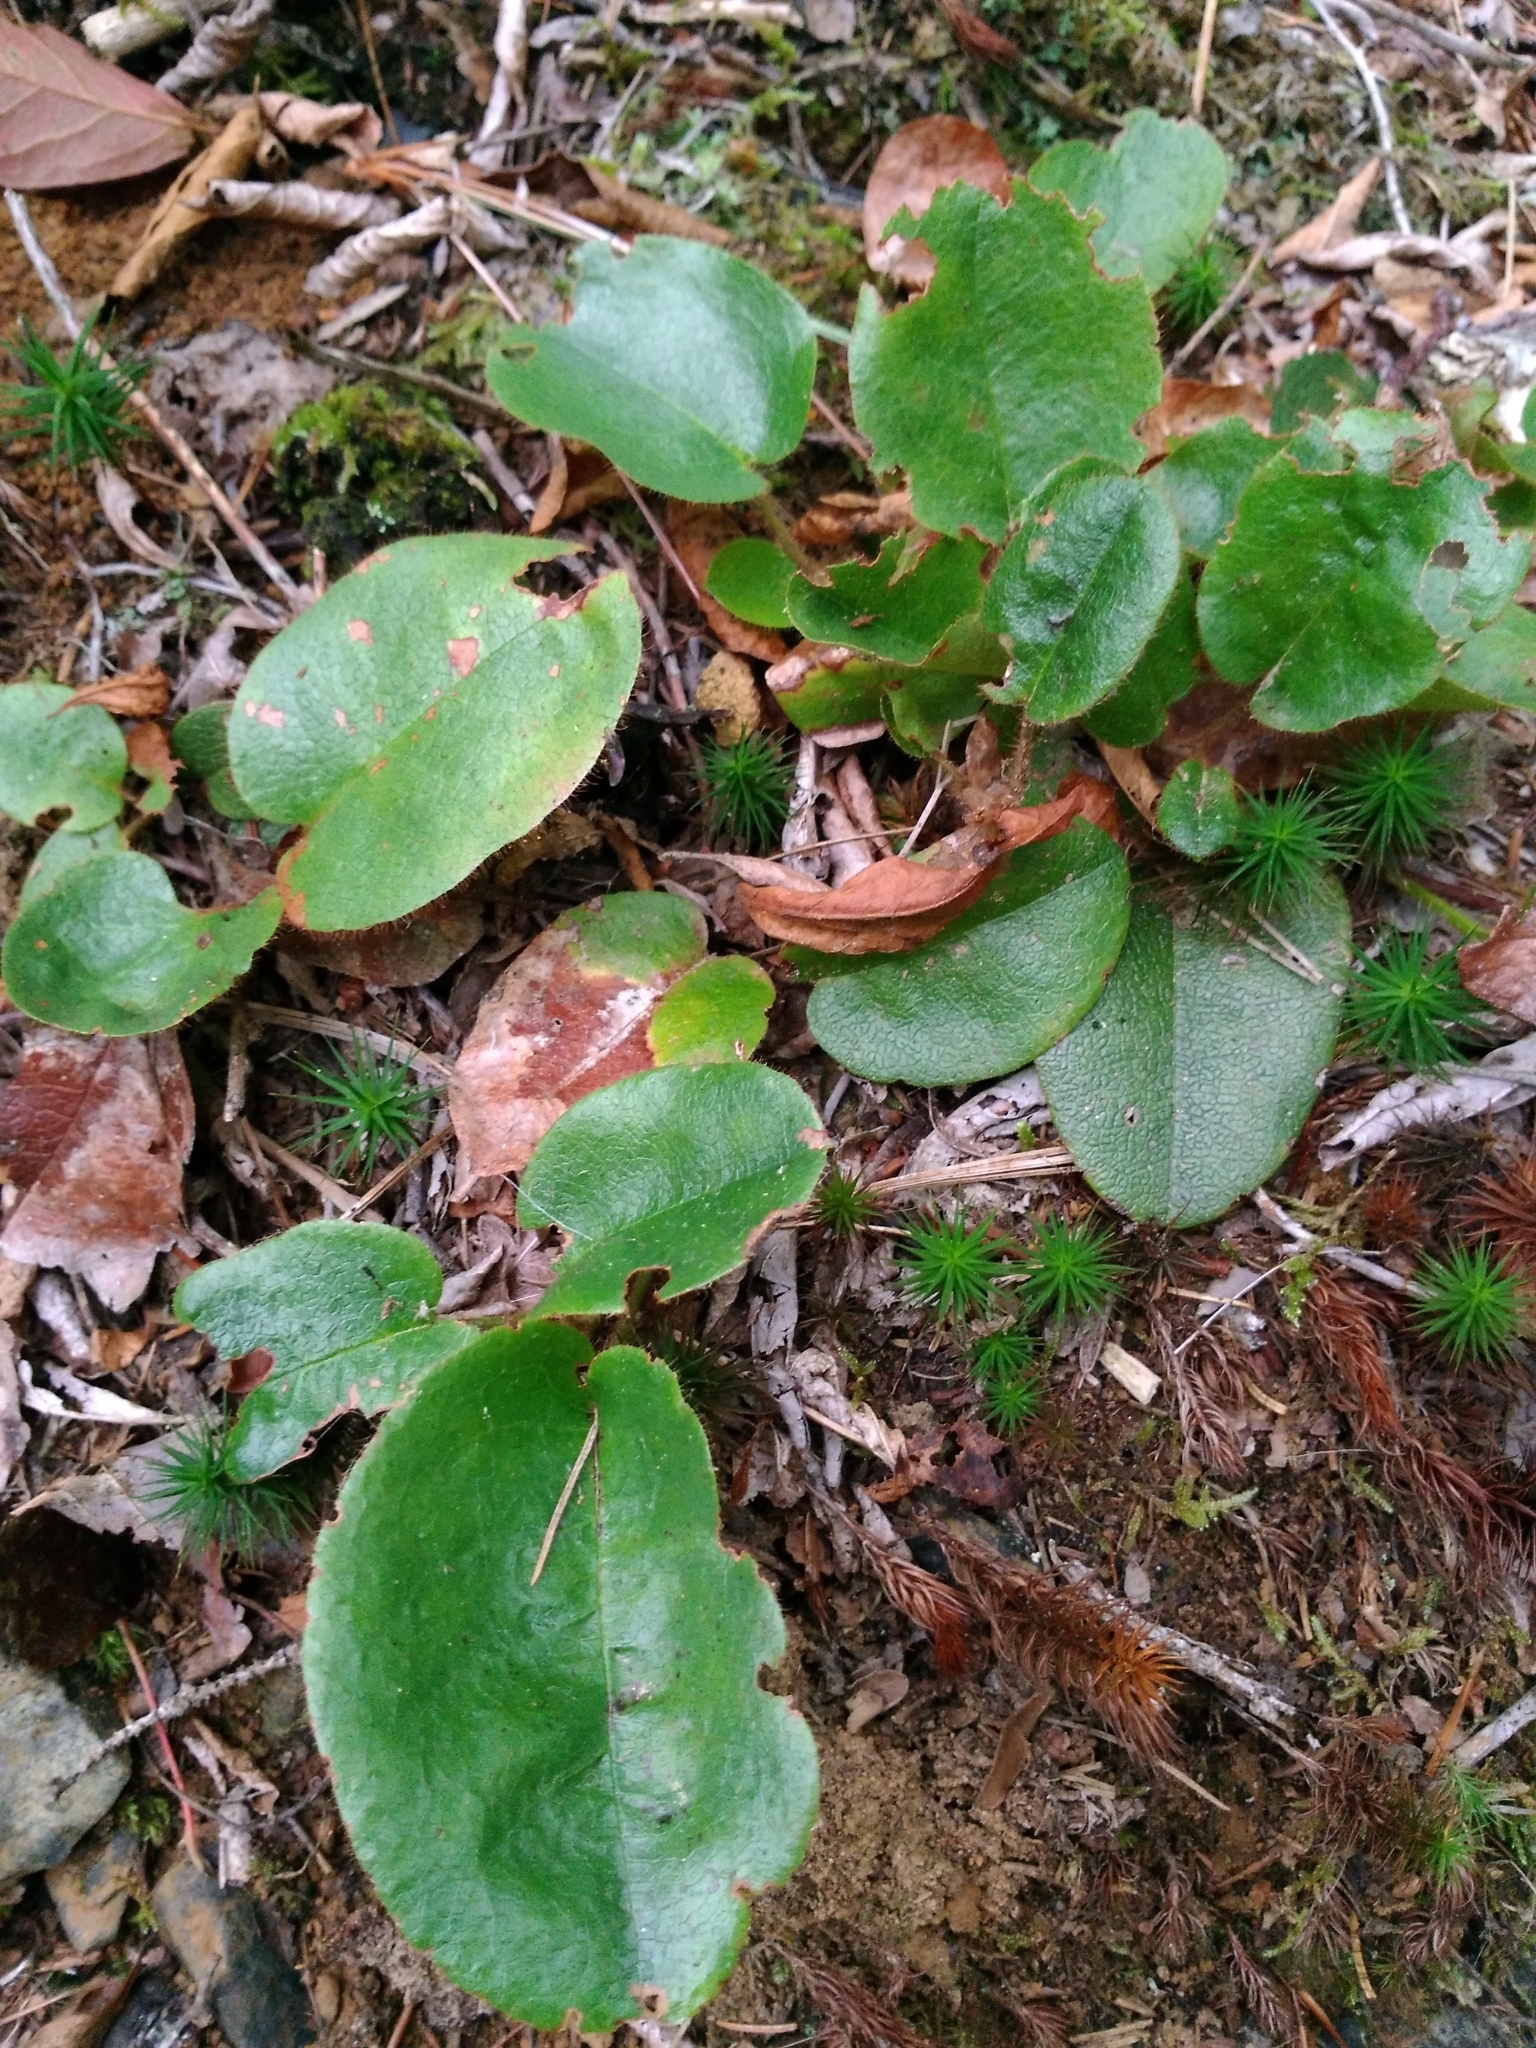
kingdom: Plantae
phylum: Tracheophyta
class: Magnoliopsida
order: Ericales
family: Ericaceae
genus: Epigaea
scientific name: Epigaea repens
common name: Gravelroot
